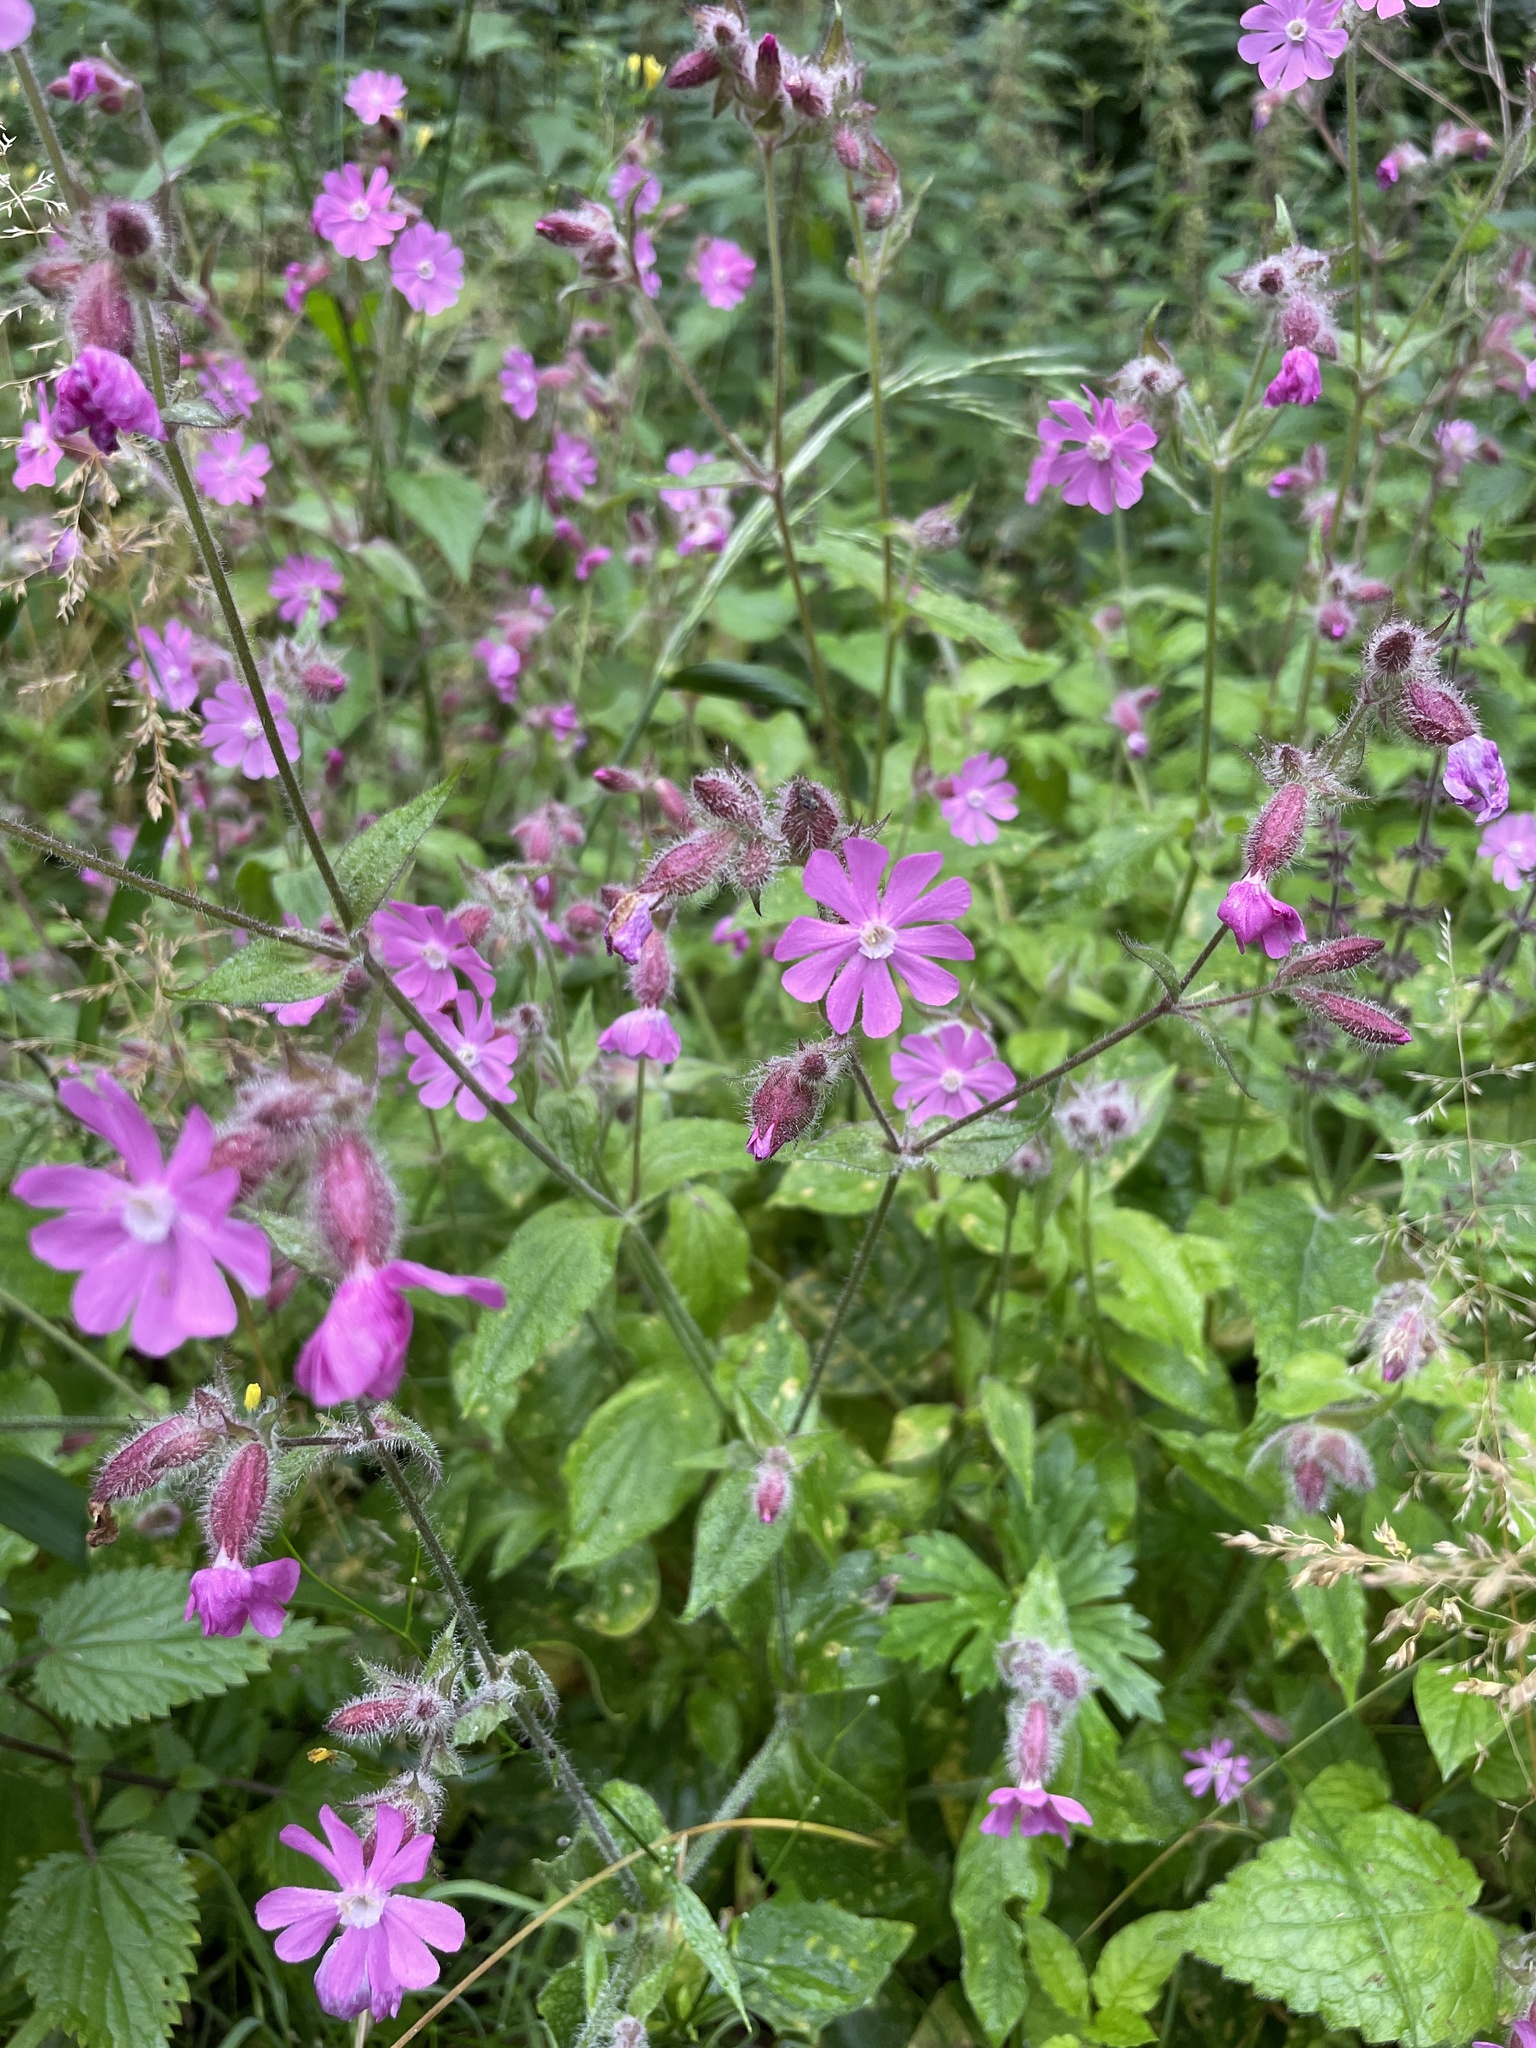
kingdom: Plantae
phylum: Tracheophyta
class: Magnoliopsida
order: Caryophyllales
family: Caryophyllaceae
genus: Silene
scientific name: Silene dioica
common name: Red campion
